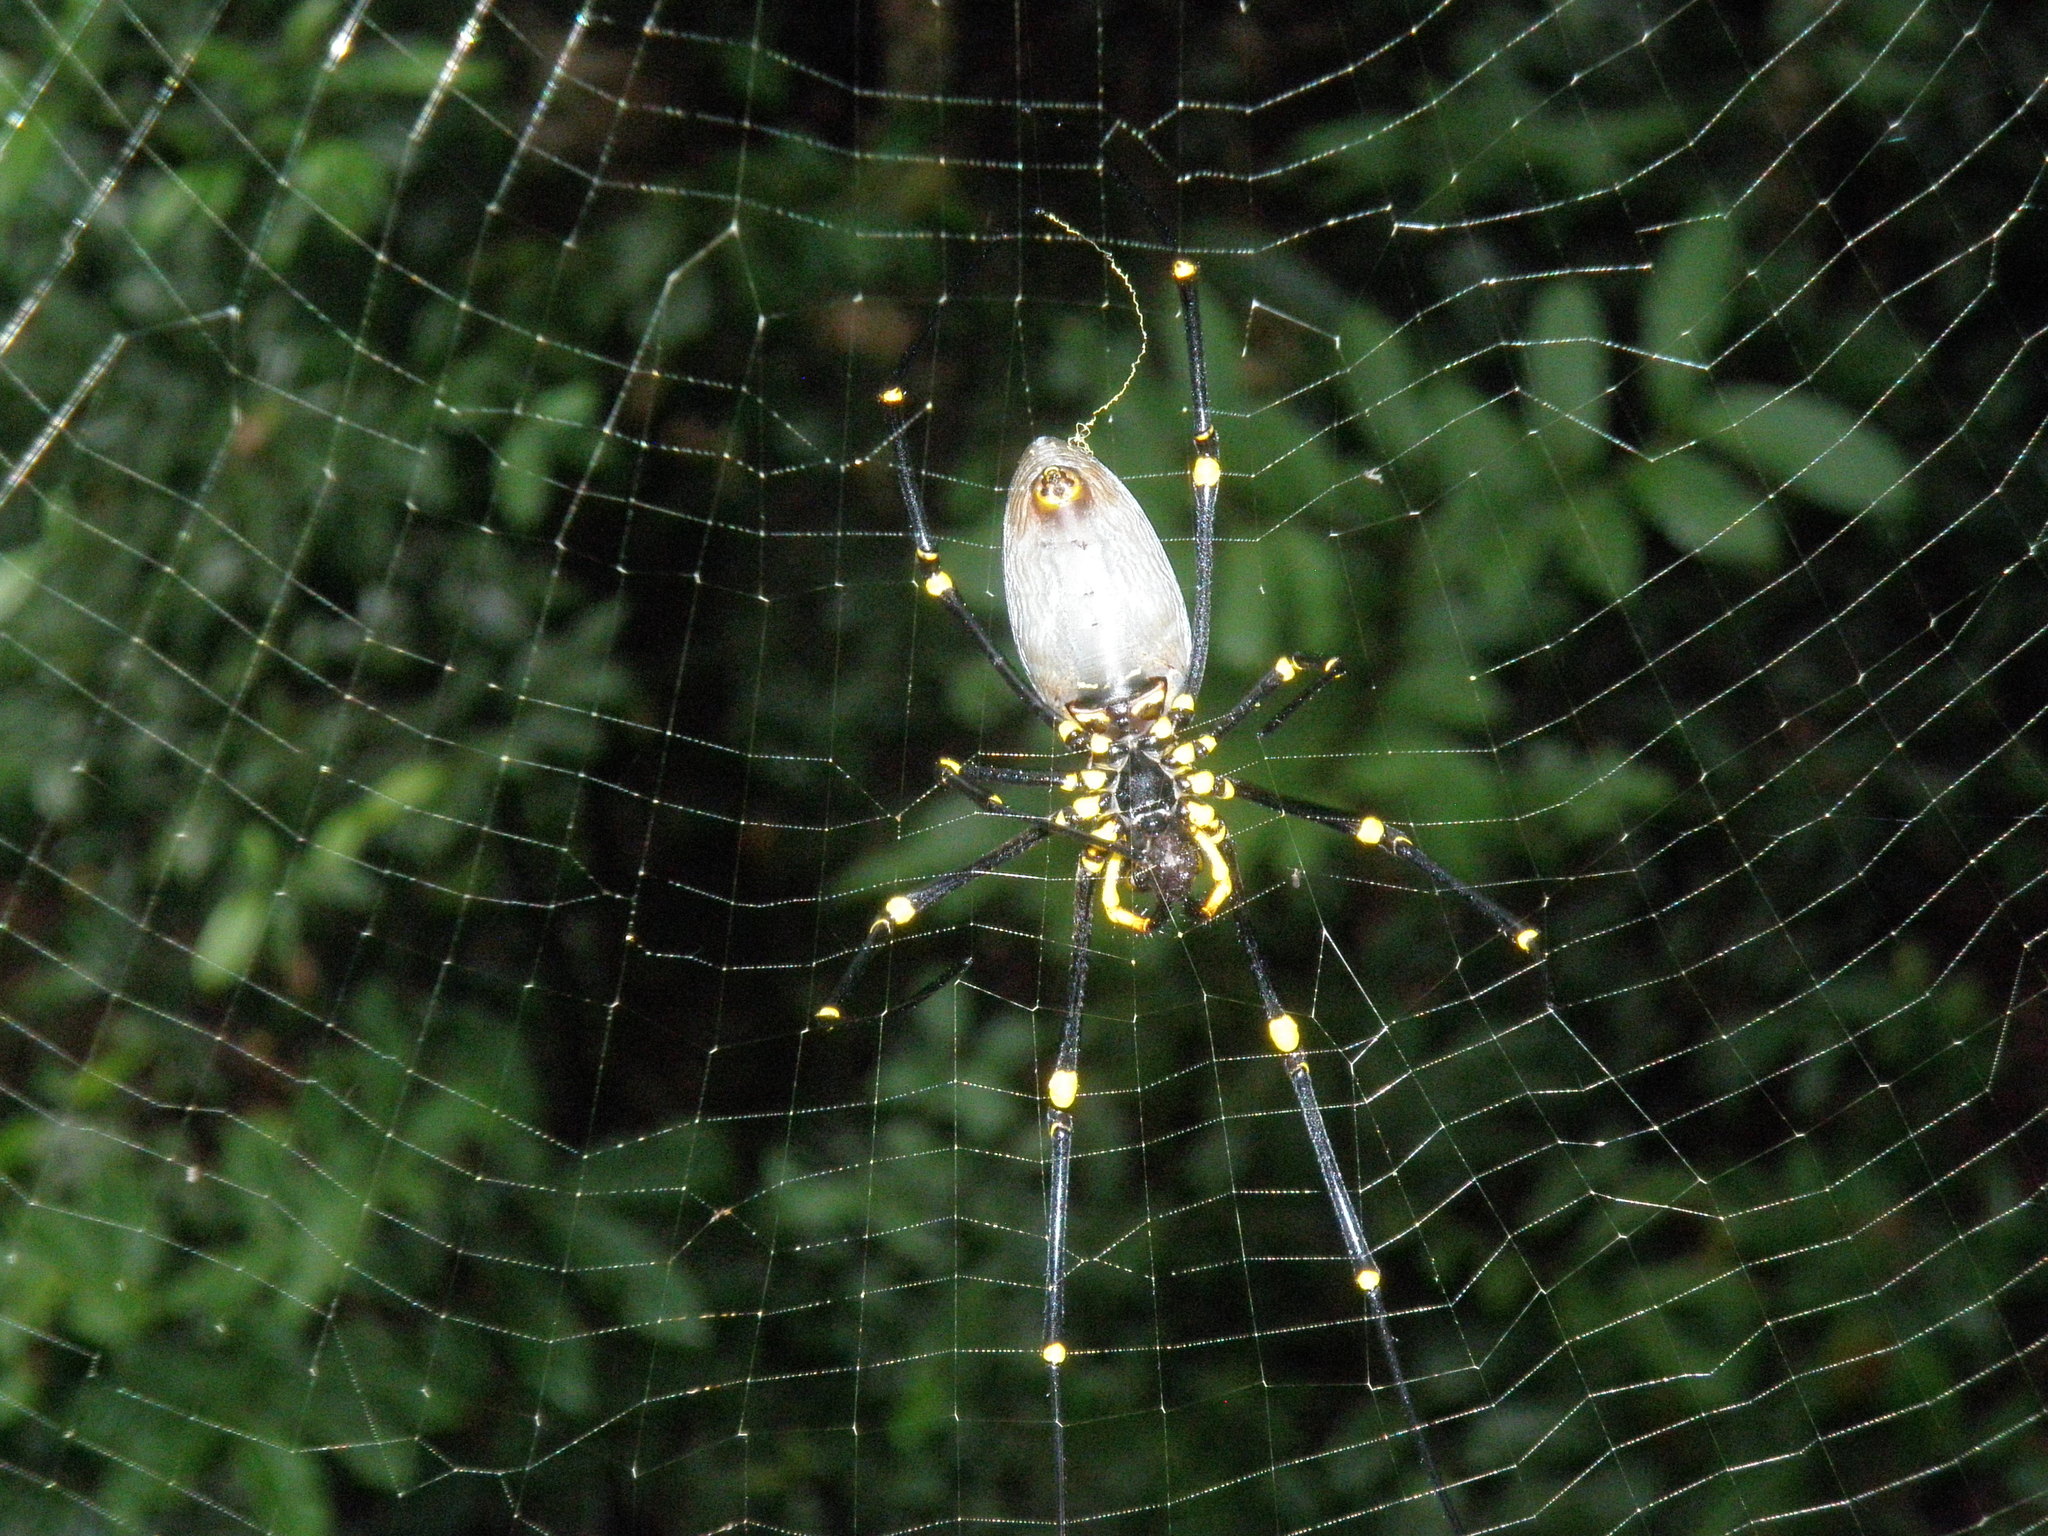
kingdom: Animalia
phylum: Arthropoda
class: Arachnida
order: Araneae
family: Araneidae
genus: Nephila
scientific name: Nephila pilipes
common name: Giant golden orb weaver
